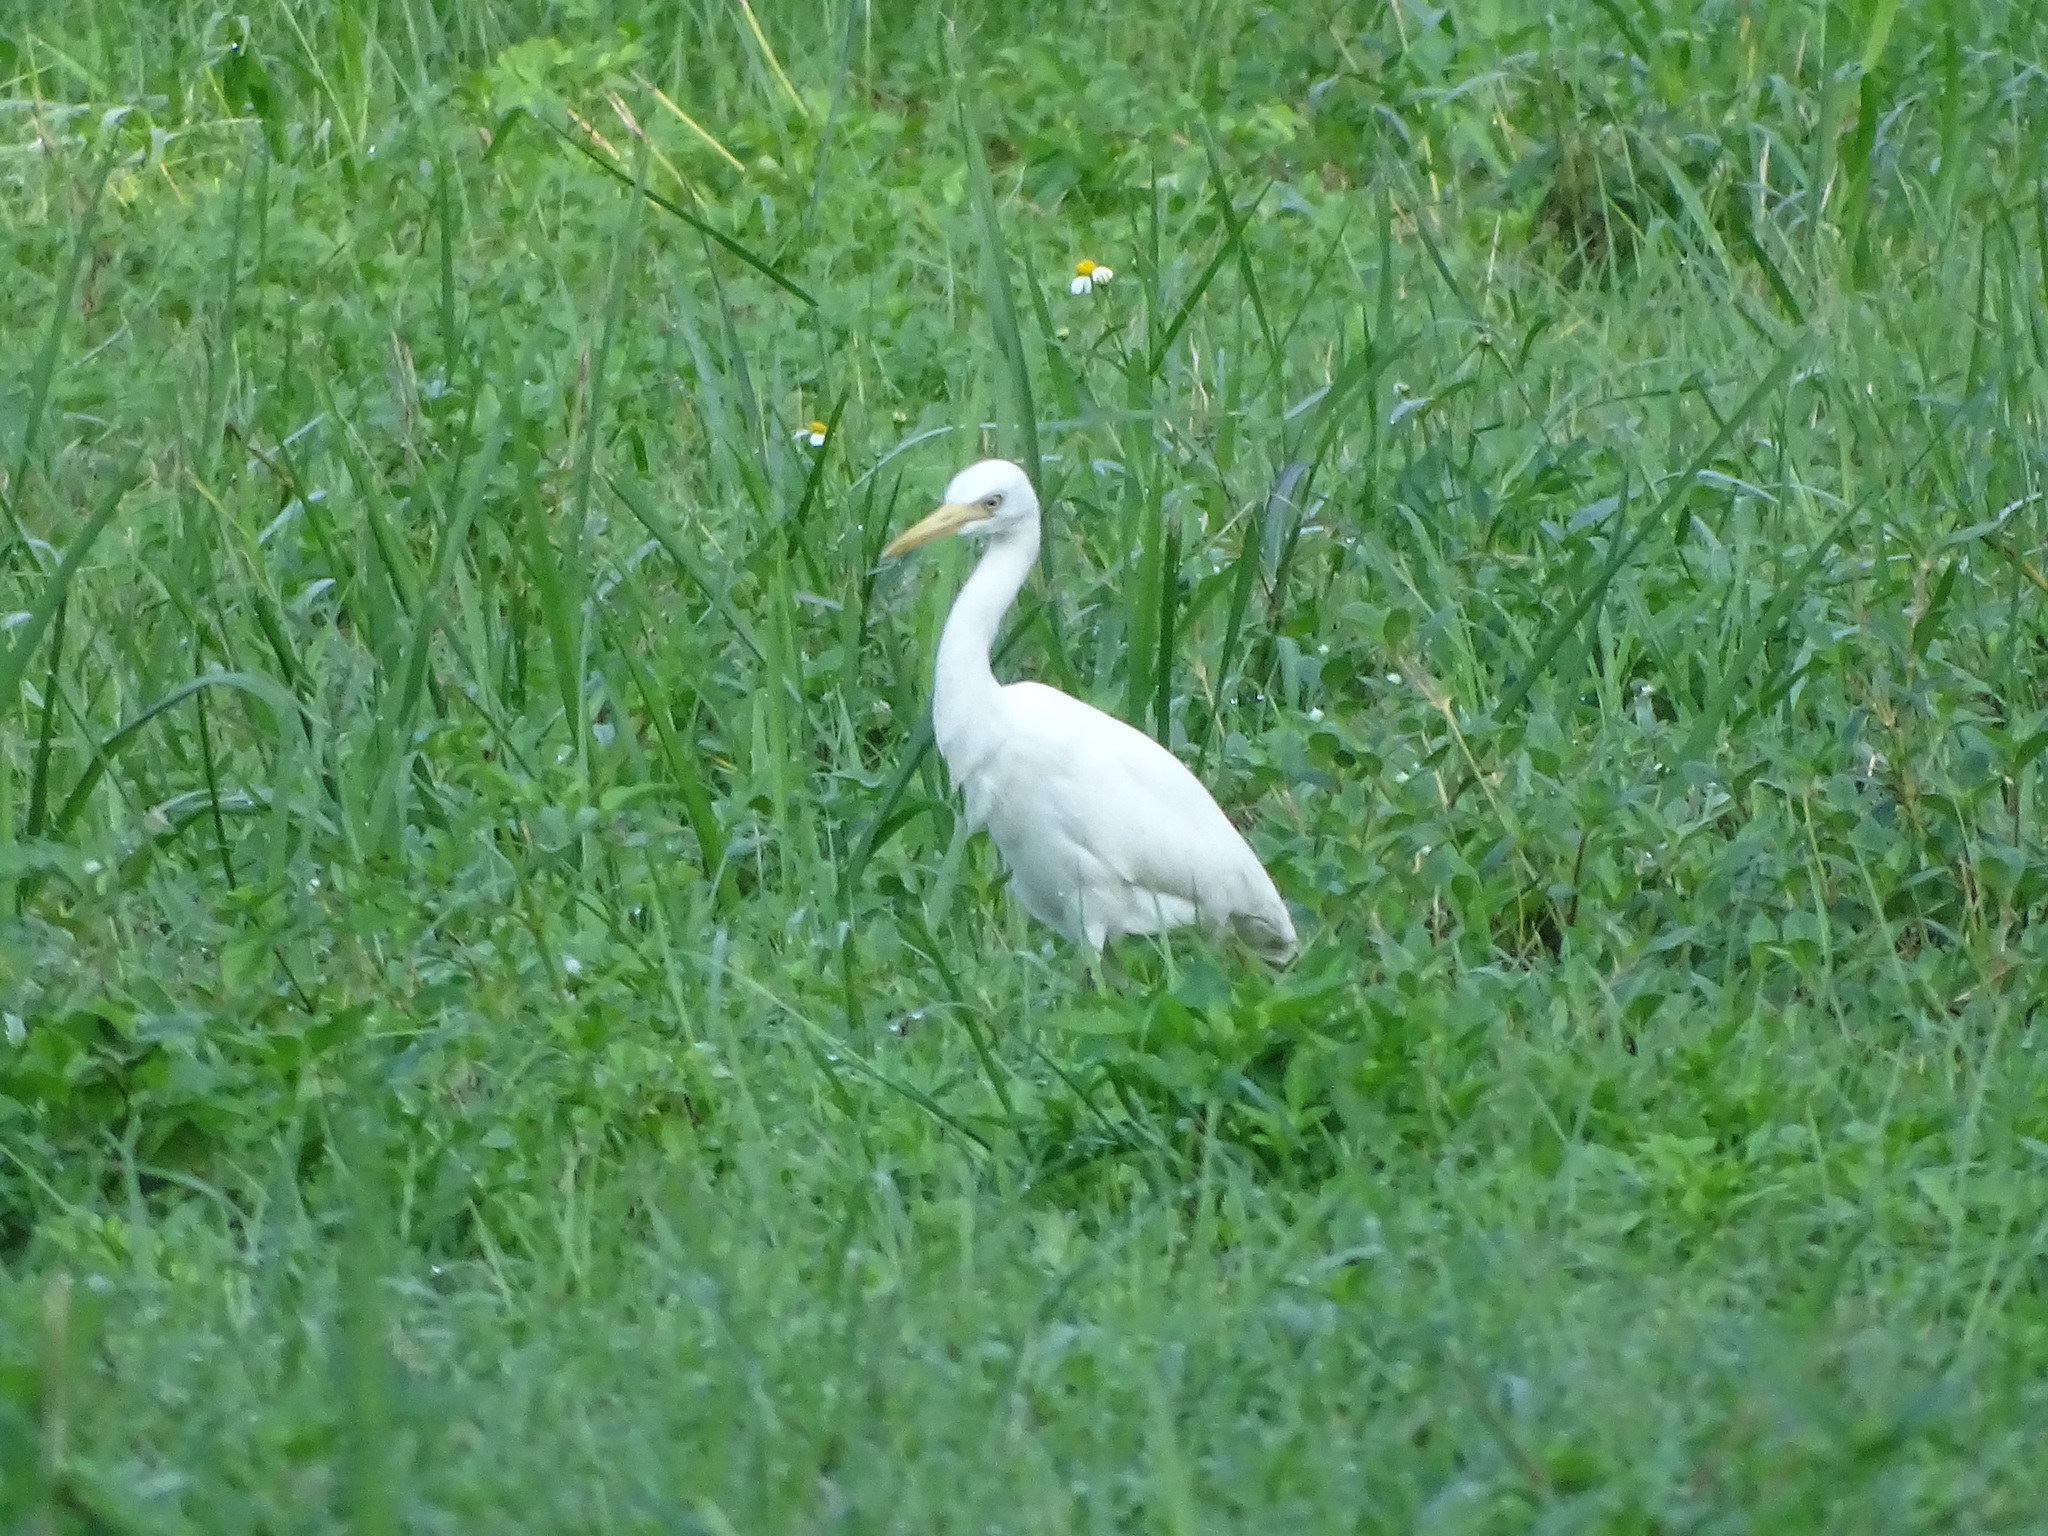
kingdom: Animalia
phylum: Chordata
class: Aves
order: Pelecaniformes
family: Ardeidae
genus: Bubulcus
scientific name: Bubulcus coromandus
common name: Eastern cattle egret
